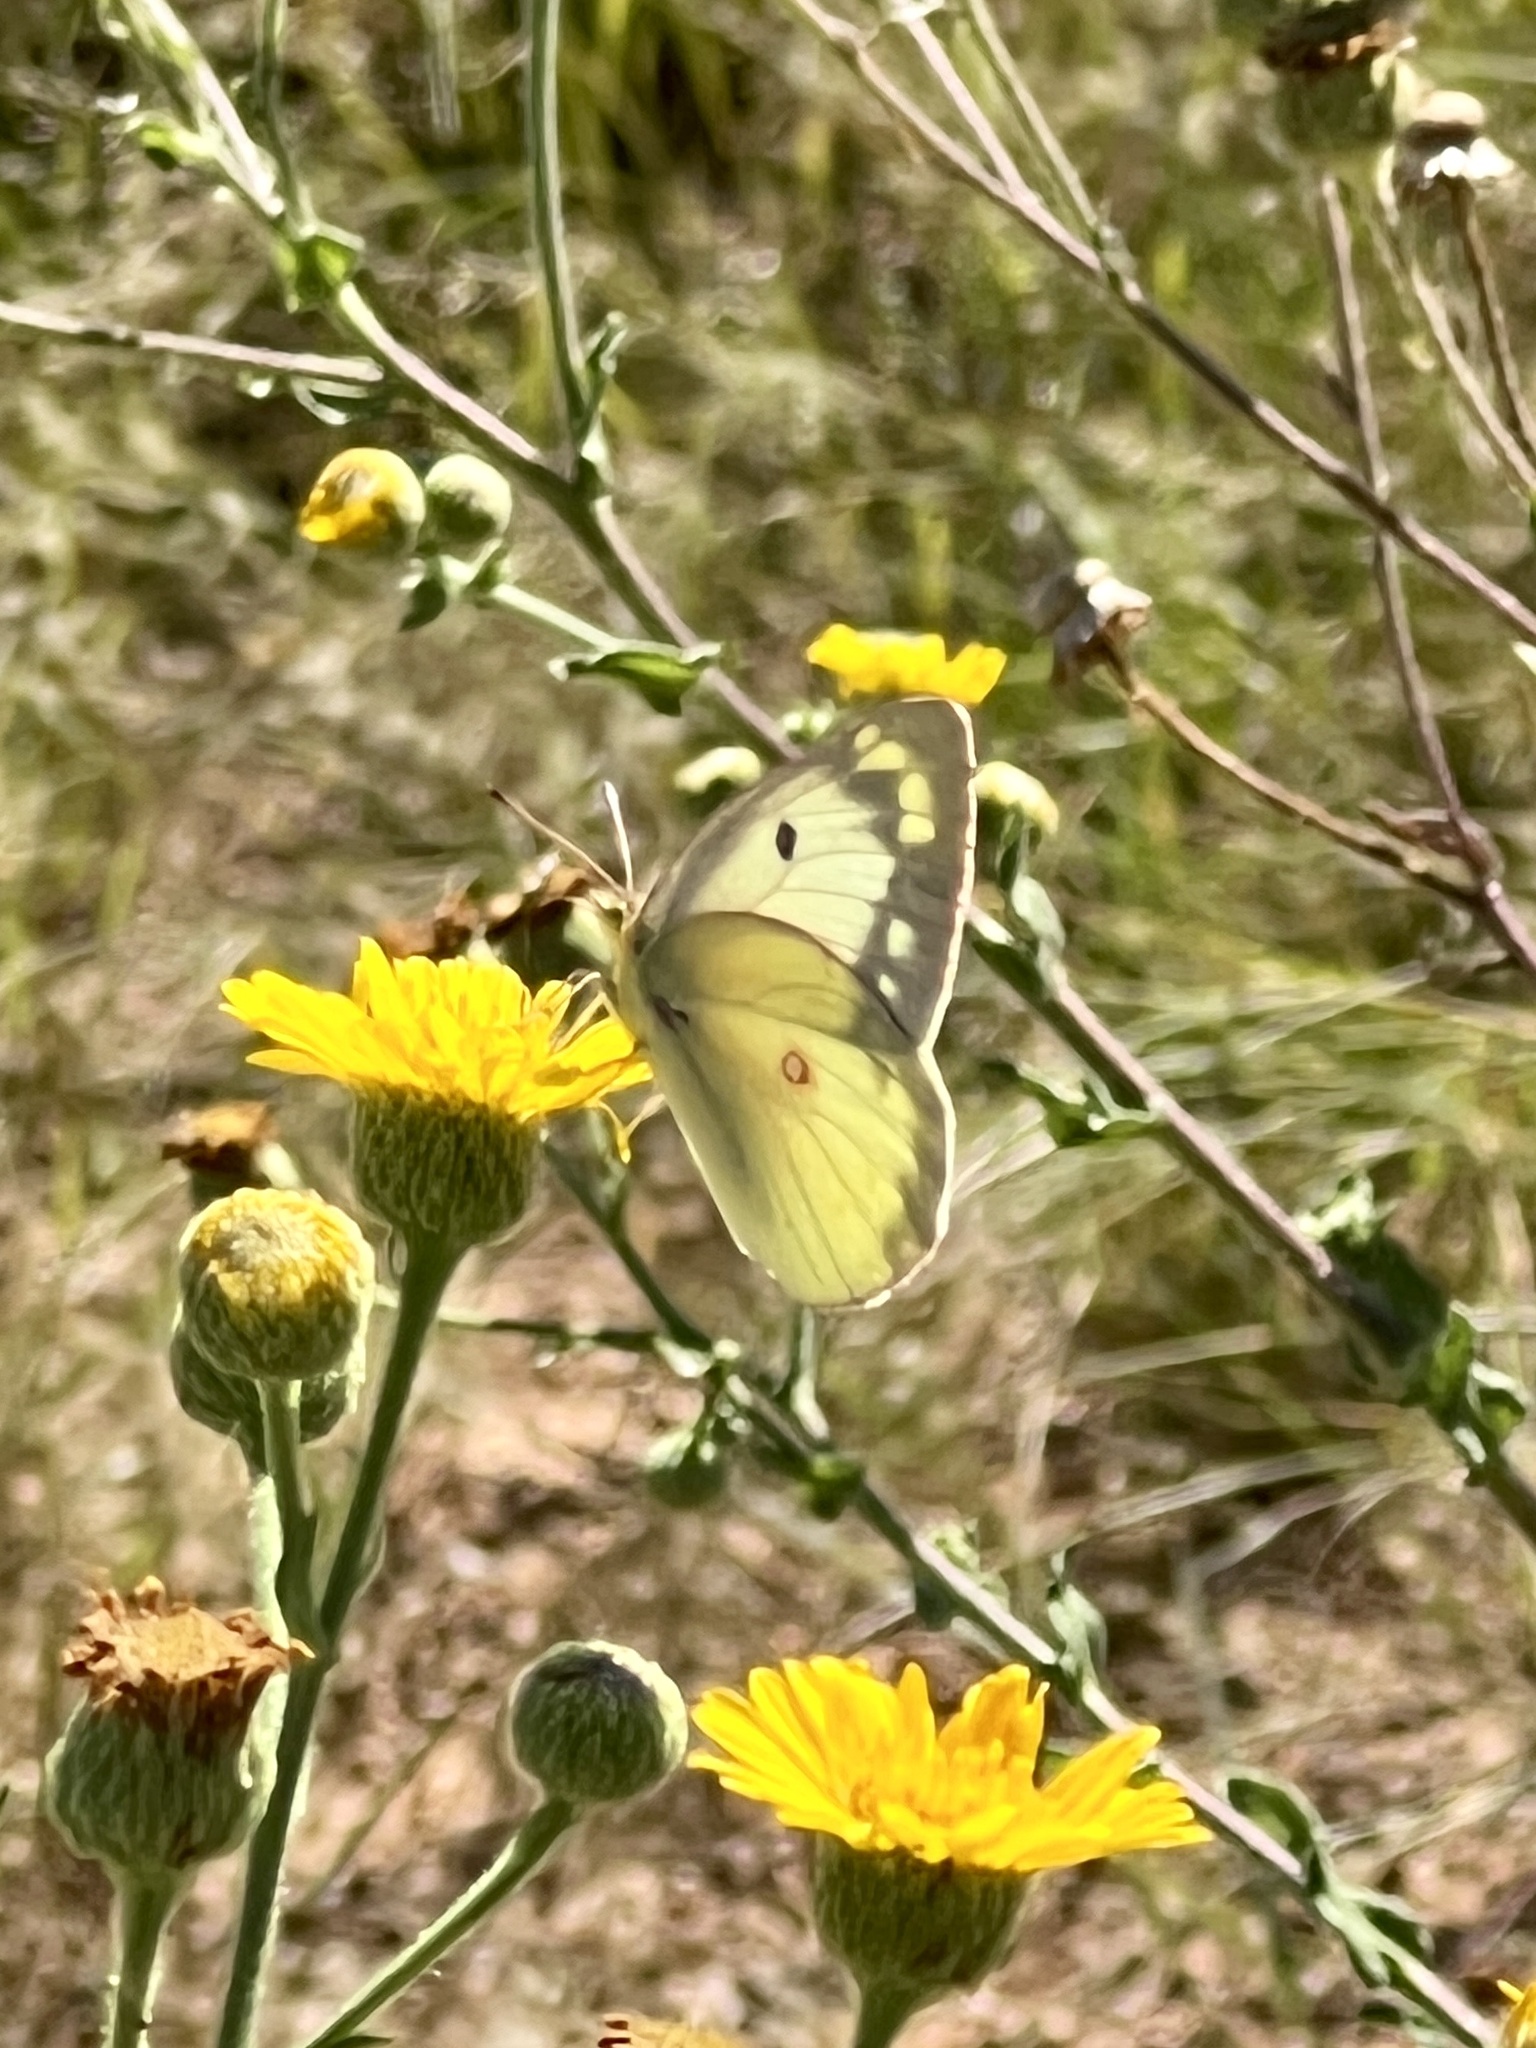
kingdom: Animalia
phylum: Arthropoda
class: Insecta
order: Lepidoptera
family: Pieridae
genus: Colias
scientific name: Colias eurytheme
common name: Alfalfa butterfly
